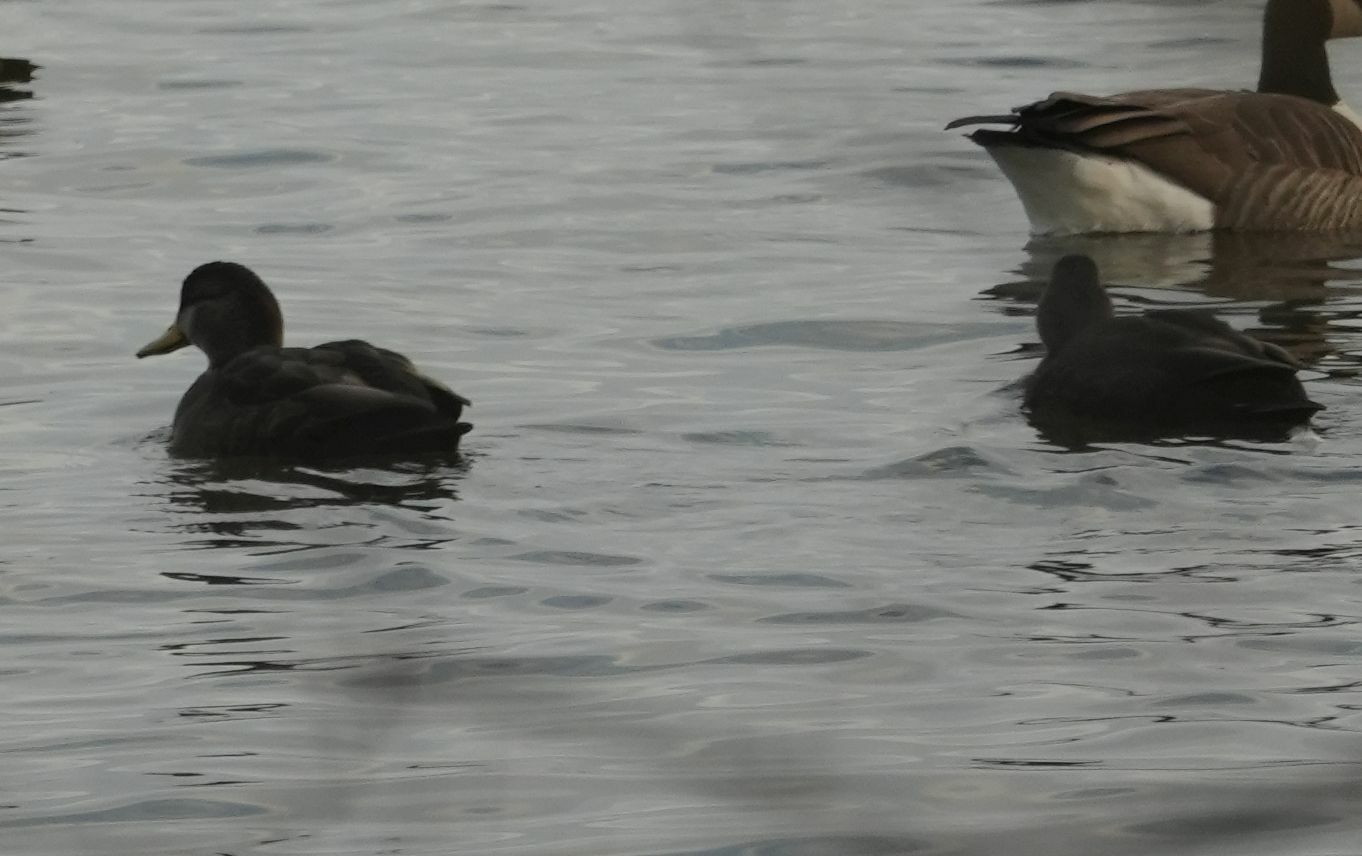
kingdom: Animalia
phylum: Chordata
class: Aves
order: Anseriformes
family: Anatidae
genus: Anas
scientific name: Anas rubripes
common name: American black duck
